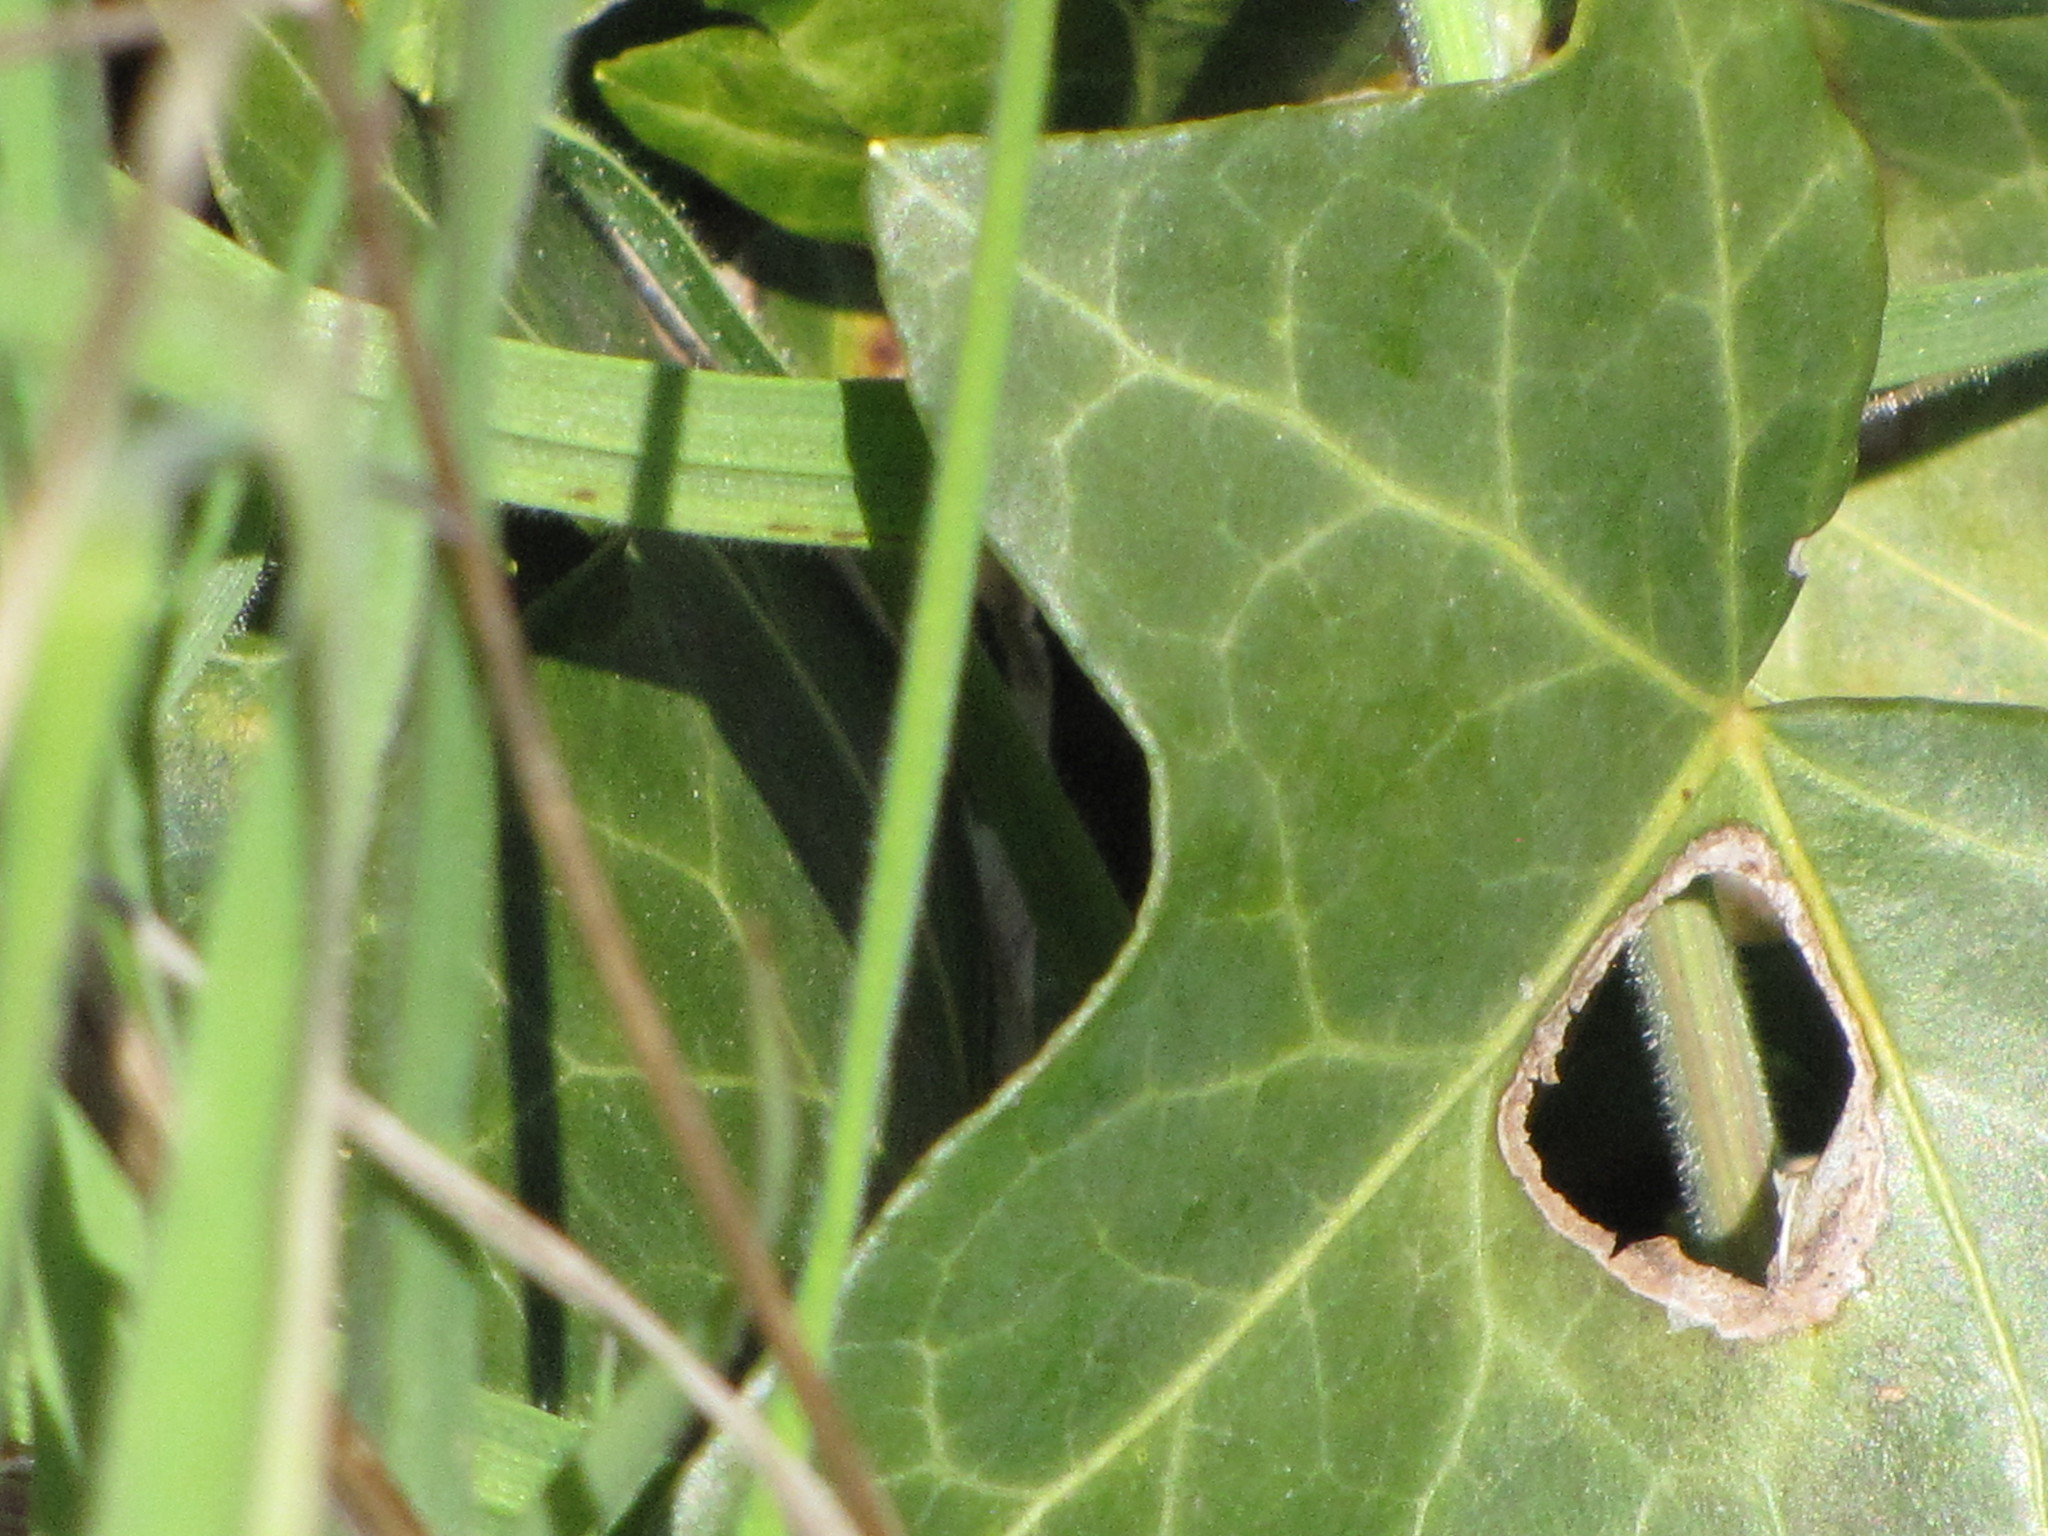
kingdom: Plantae
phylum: Tracheophyta
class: Magnoliopsida
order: Apiales
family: Araliaceae
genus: Hedera
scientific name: Hedera helix
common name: Ivy
